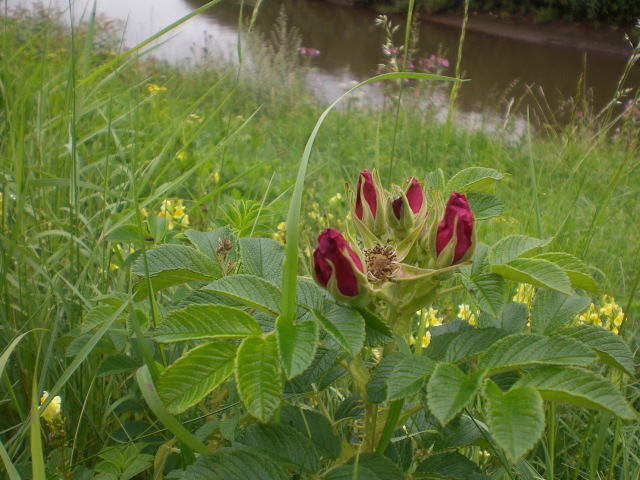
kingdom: Plantae
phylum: Tracheophyta
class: Magnoliopsida
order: Rosales
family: Rosaceae
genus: Rosa
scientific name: Rosa rugosa
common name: Japanese rose
